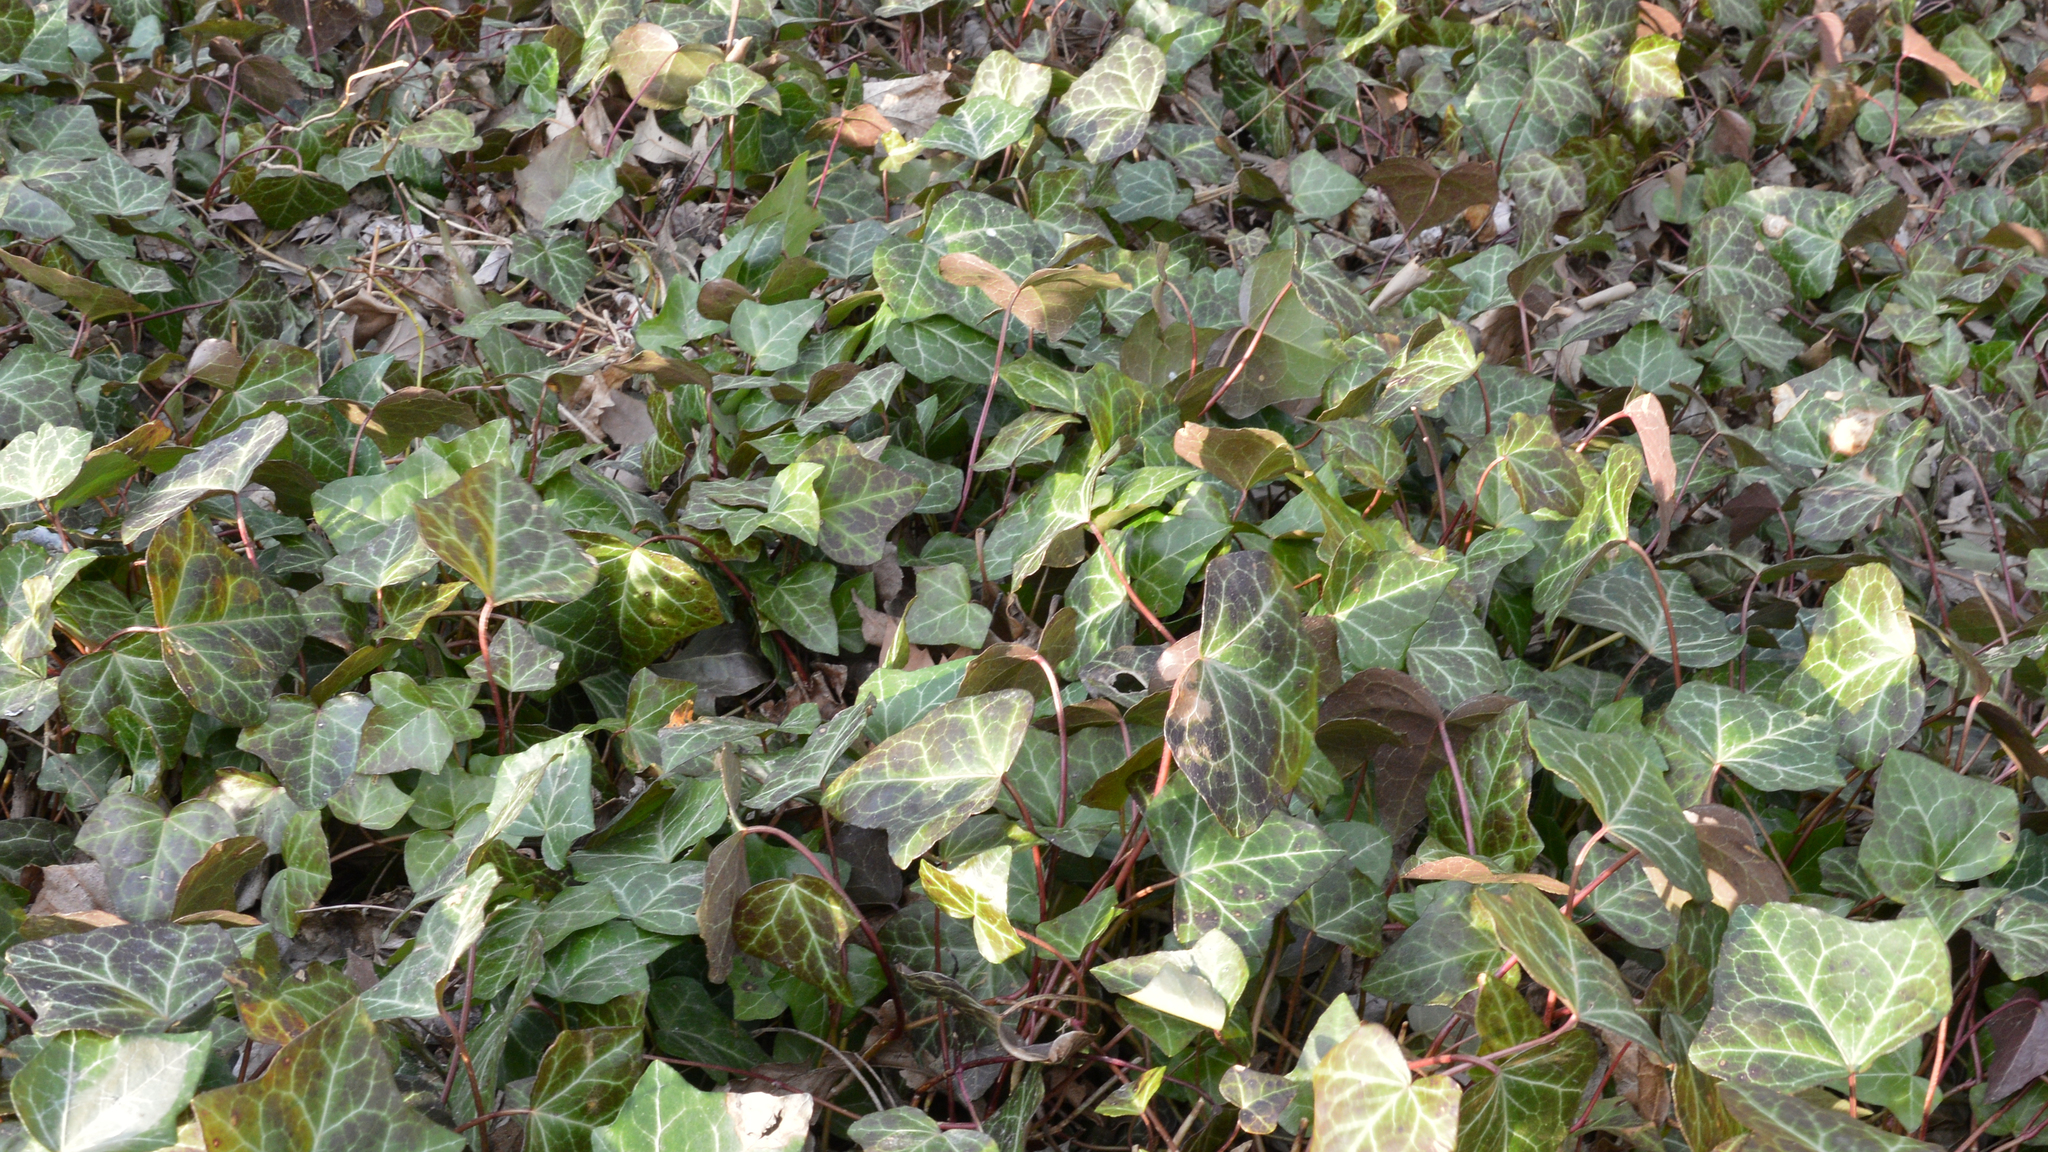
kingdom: Plantae
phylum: Tracheophyta
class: Magnoliopsida
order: Apiales
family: Araliaceae
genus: Hedera
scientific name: Hedera helix
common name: Ivy
